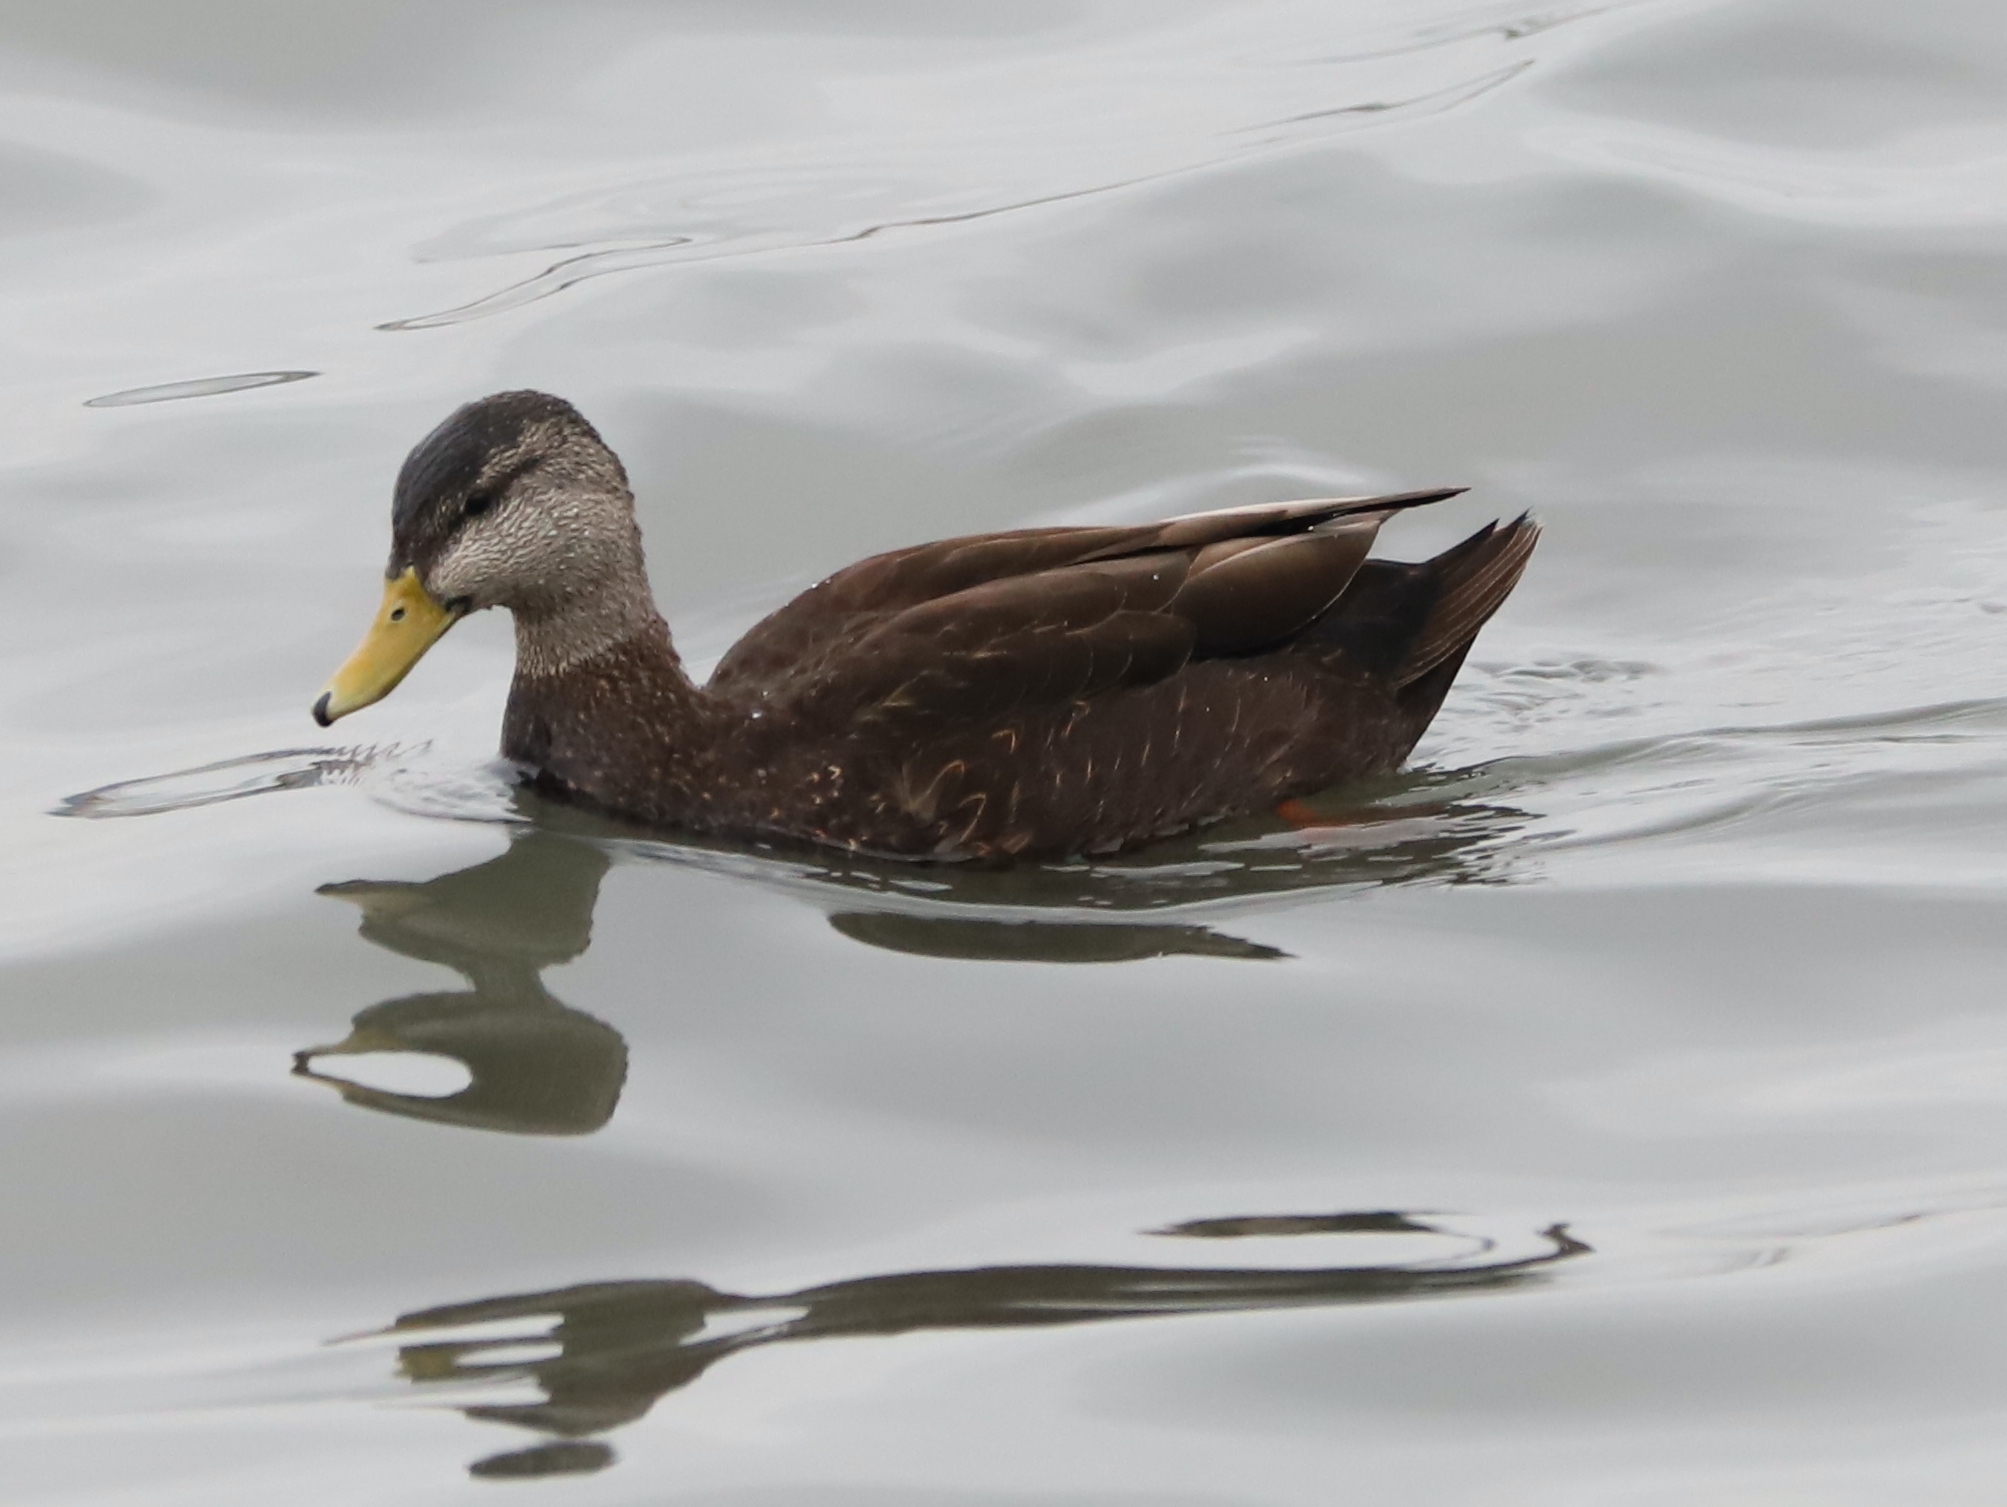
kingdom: Animalia
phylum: Chordata
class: Aves
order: Anseriformes
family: Anatidae
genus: Anas
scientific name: Anas rubripes
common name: American black duck
